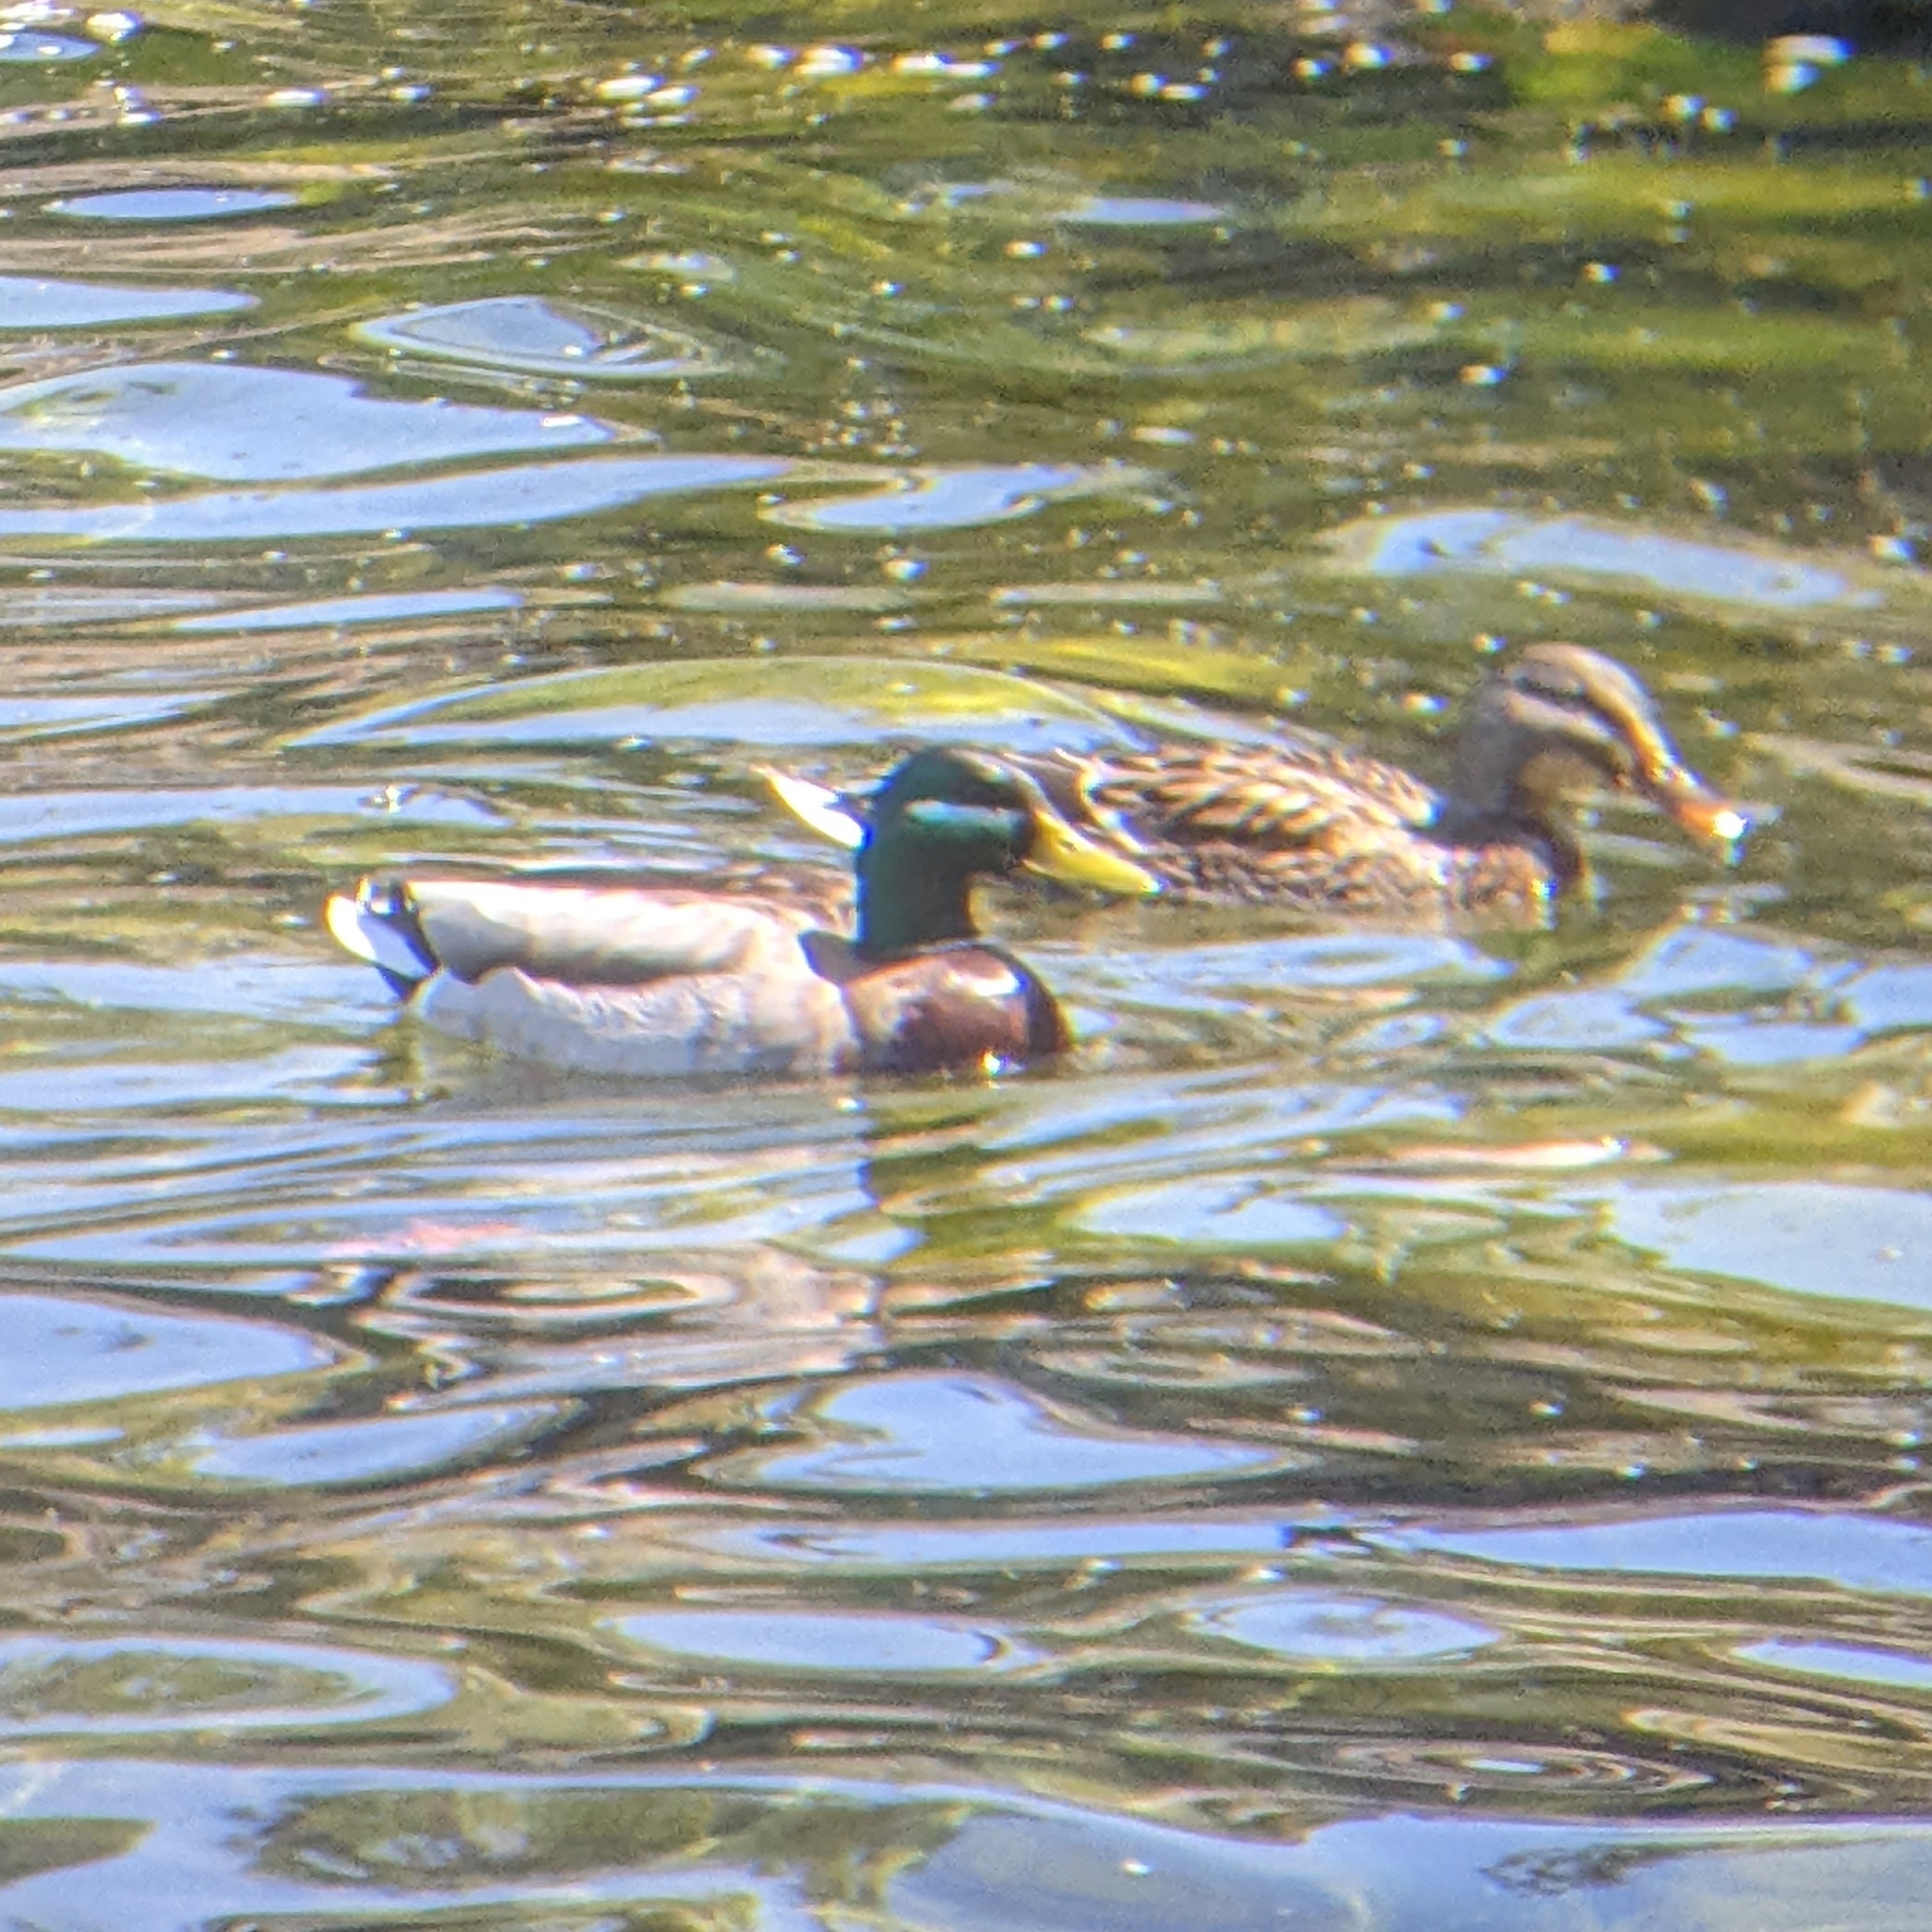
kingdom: Animalia
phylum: Chordata
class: Aves
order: Anseriformes
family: Anatidae
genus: Anas
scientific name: Anas platyrhynchos
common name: Mallard
